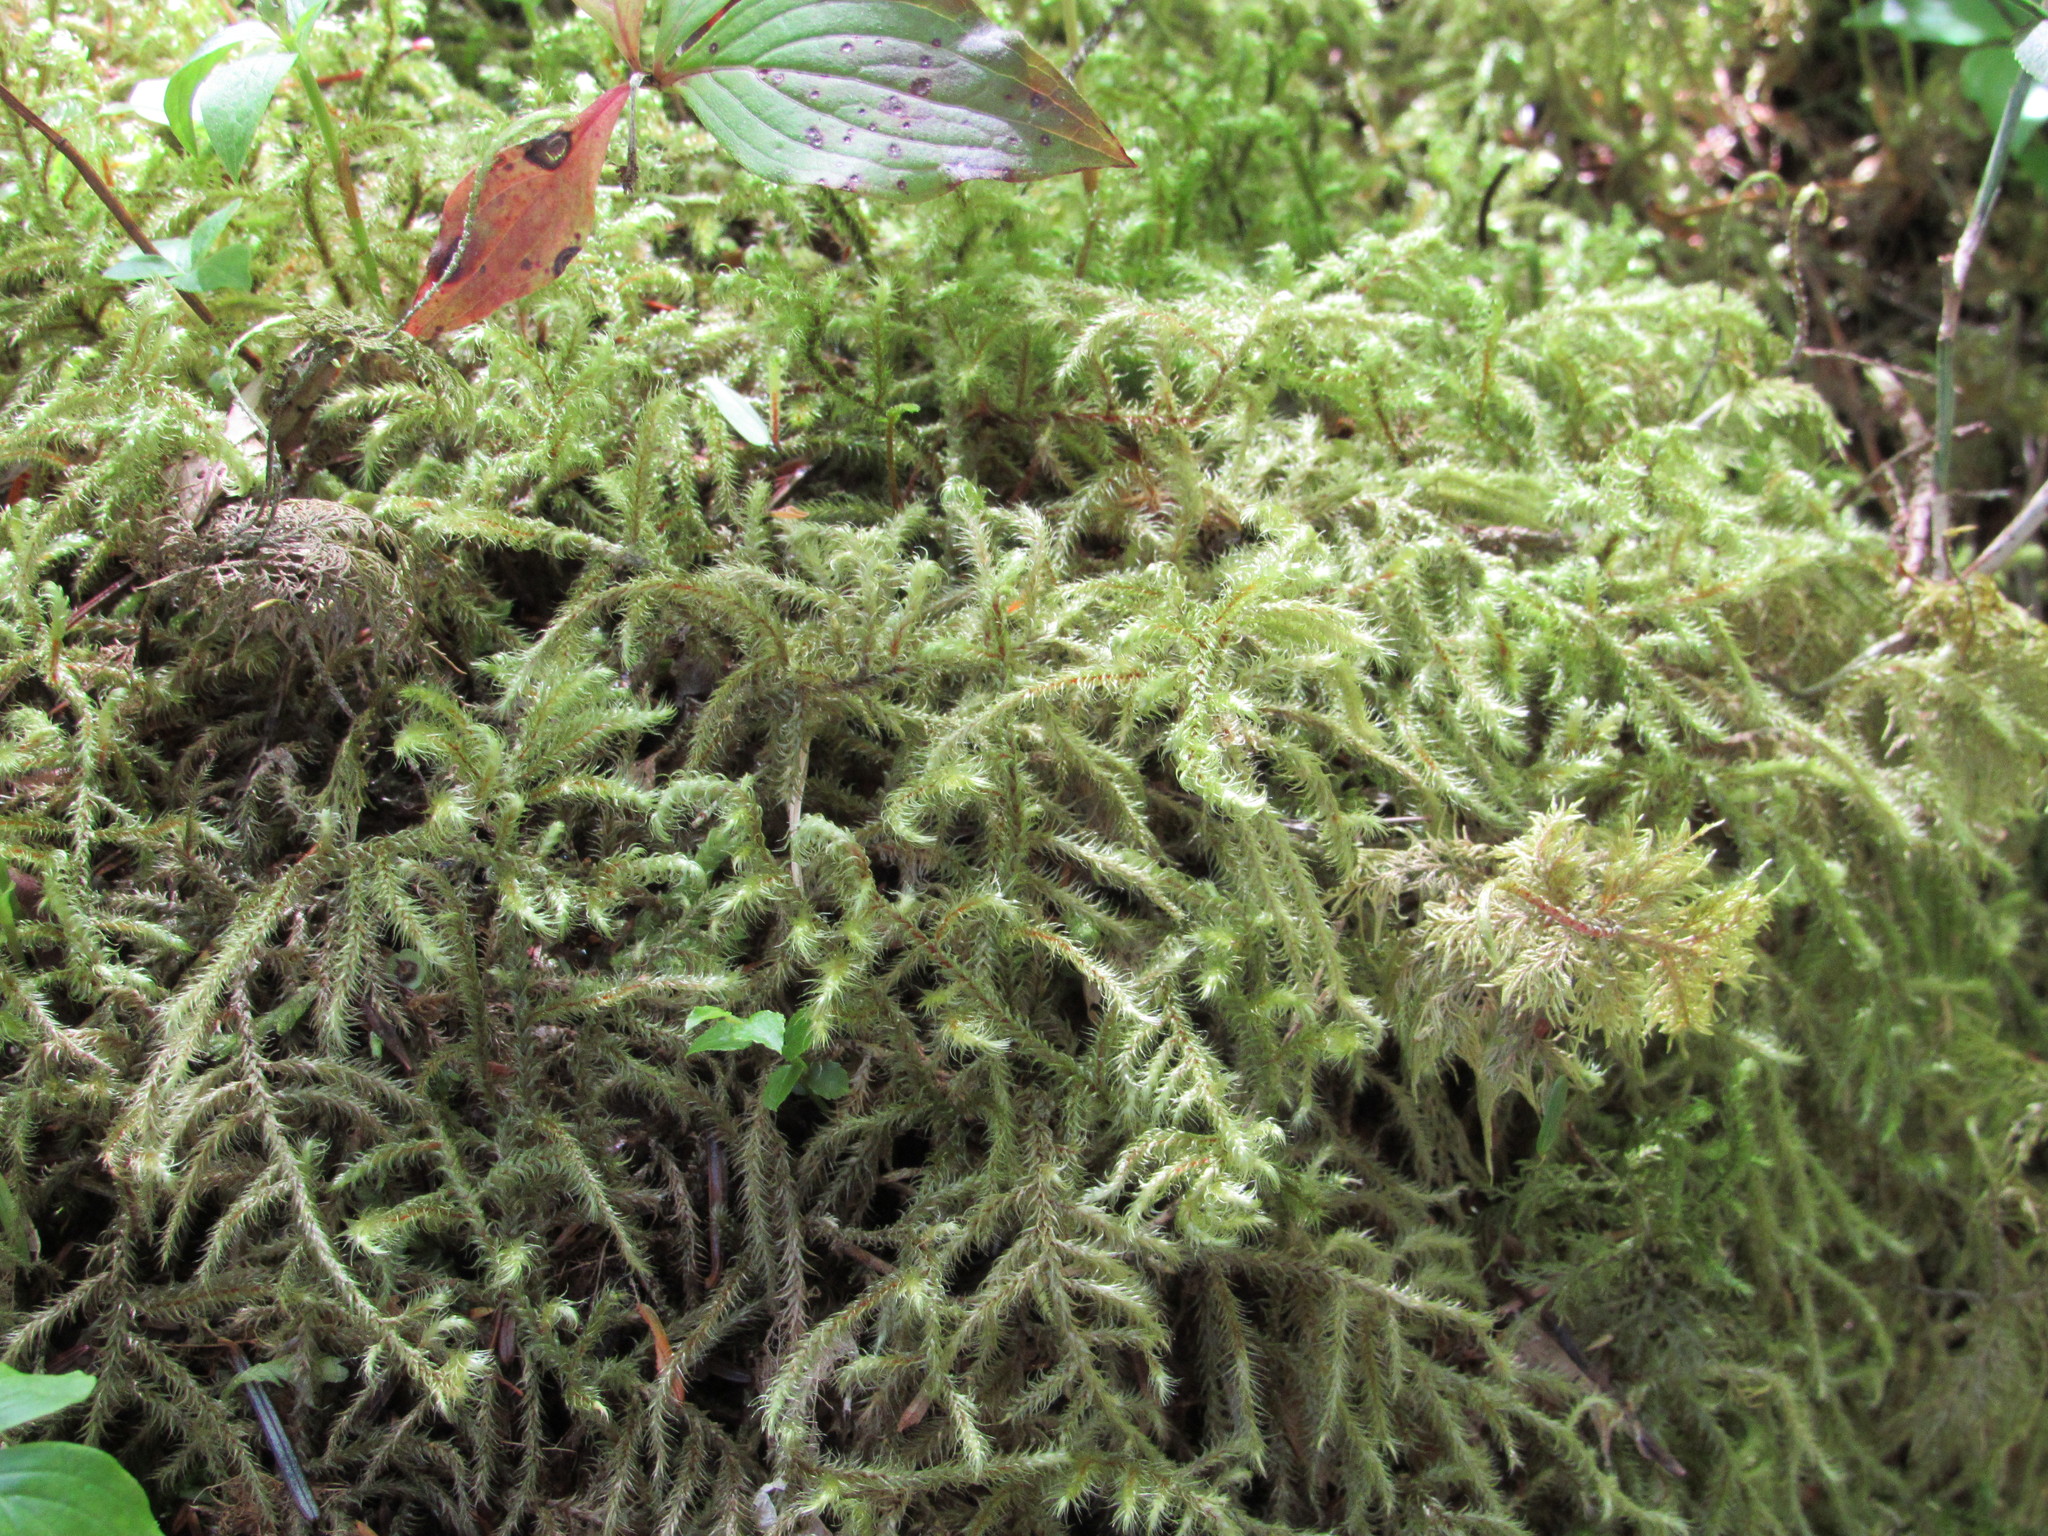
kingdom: Plantae
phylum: Bryophyta
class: Bryopsida
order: Hypnales
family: Hylocomiaceae
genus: Rhytidiadelphus
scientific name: Rhytidiadelphus loreus
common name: Lanky moss
